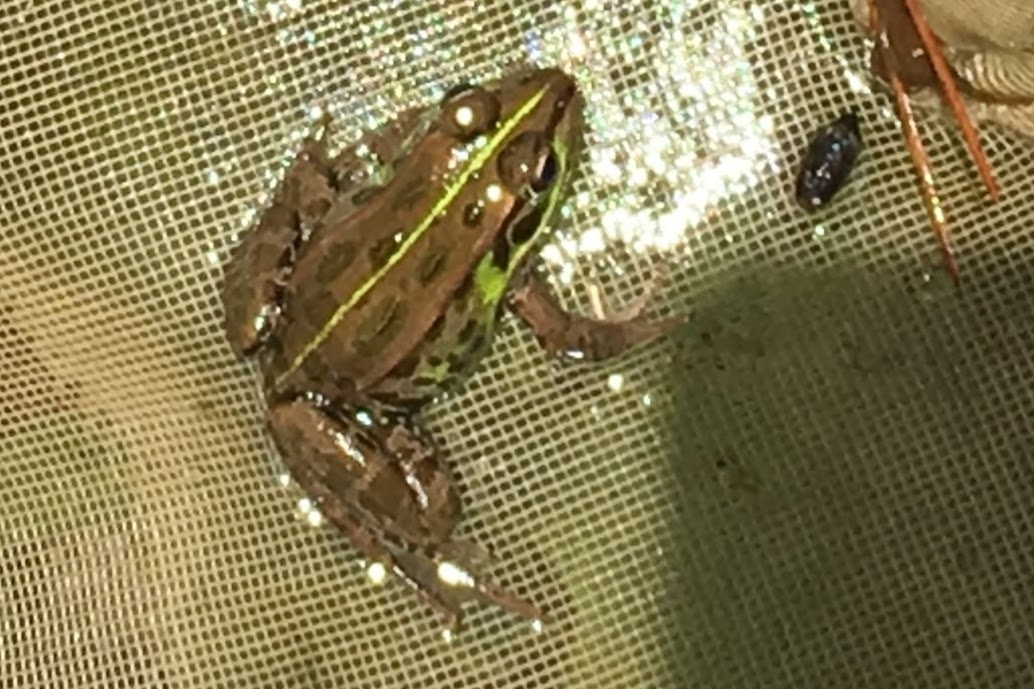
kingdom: Animalia
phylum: Chordata
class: Amphibia
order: Anura
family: Ranidae
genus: Pelophylax
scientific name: Pelophylax porosus
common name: Daruma pond frog (rana porosa brevipoda)
